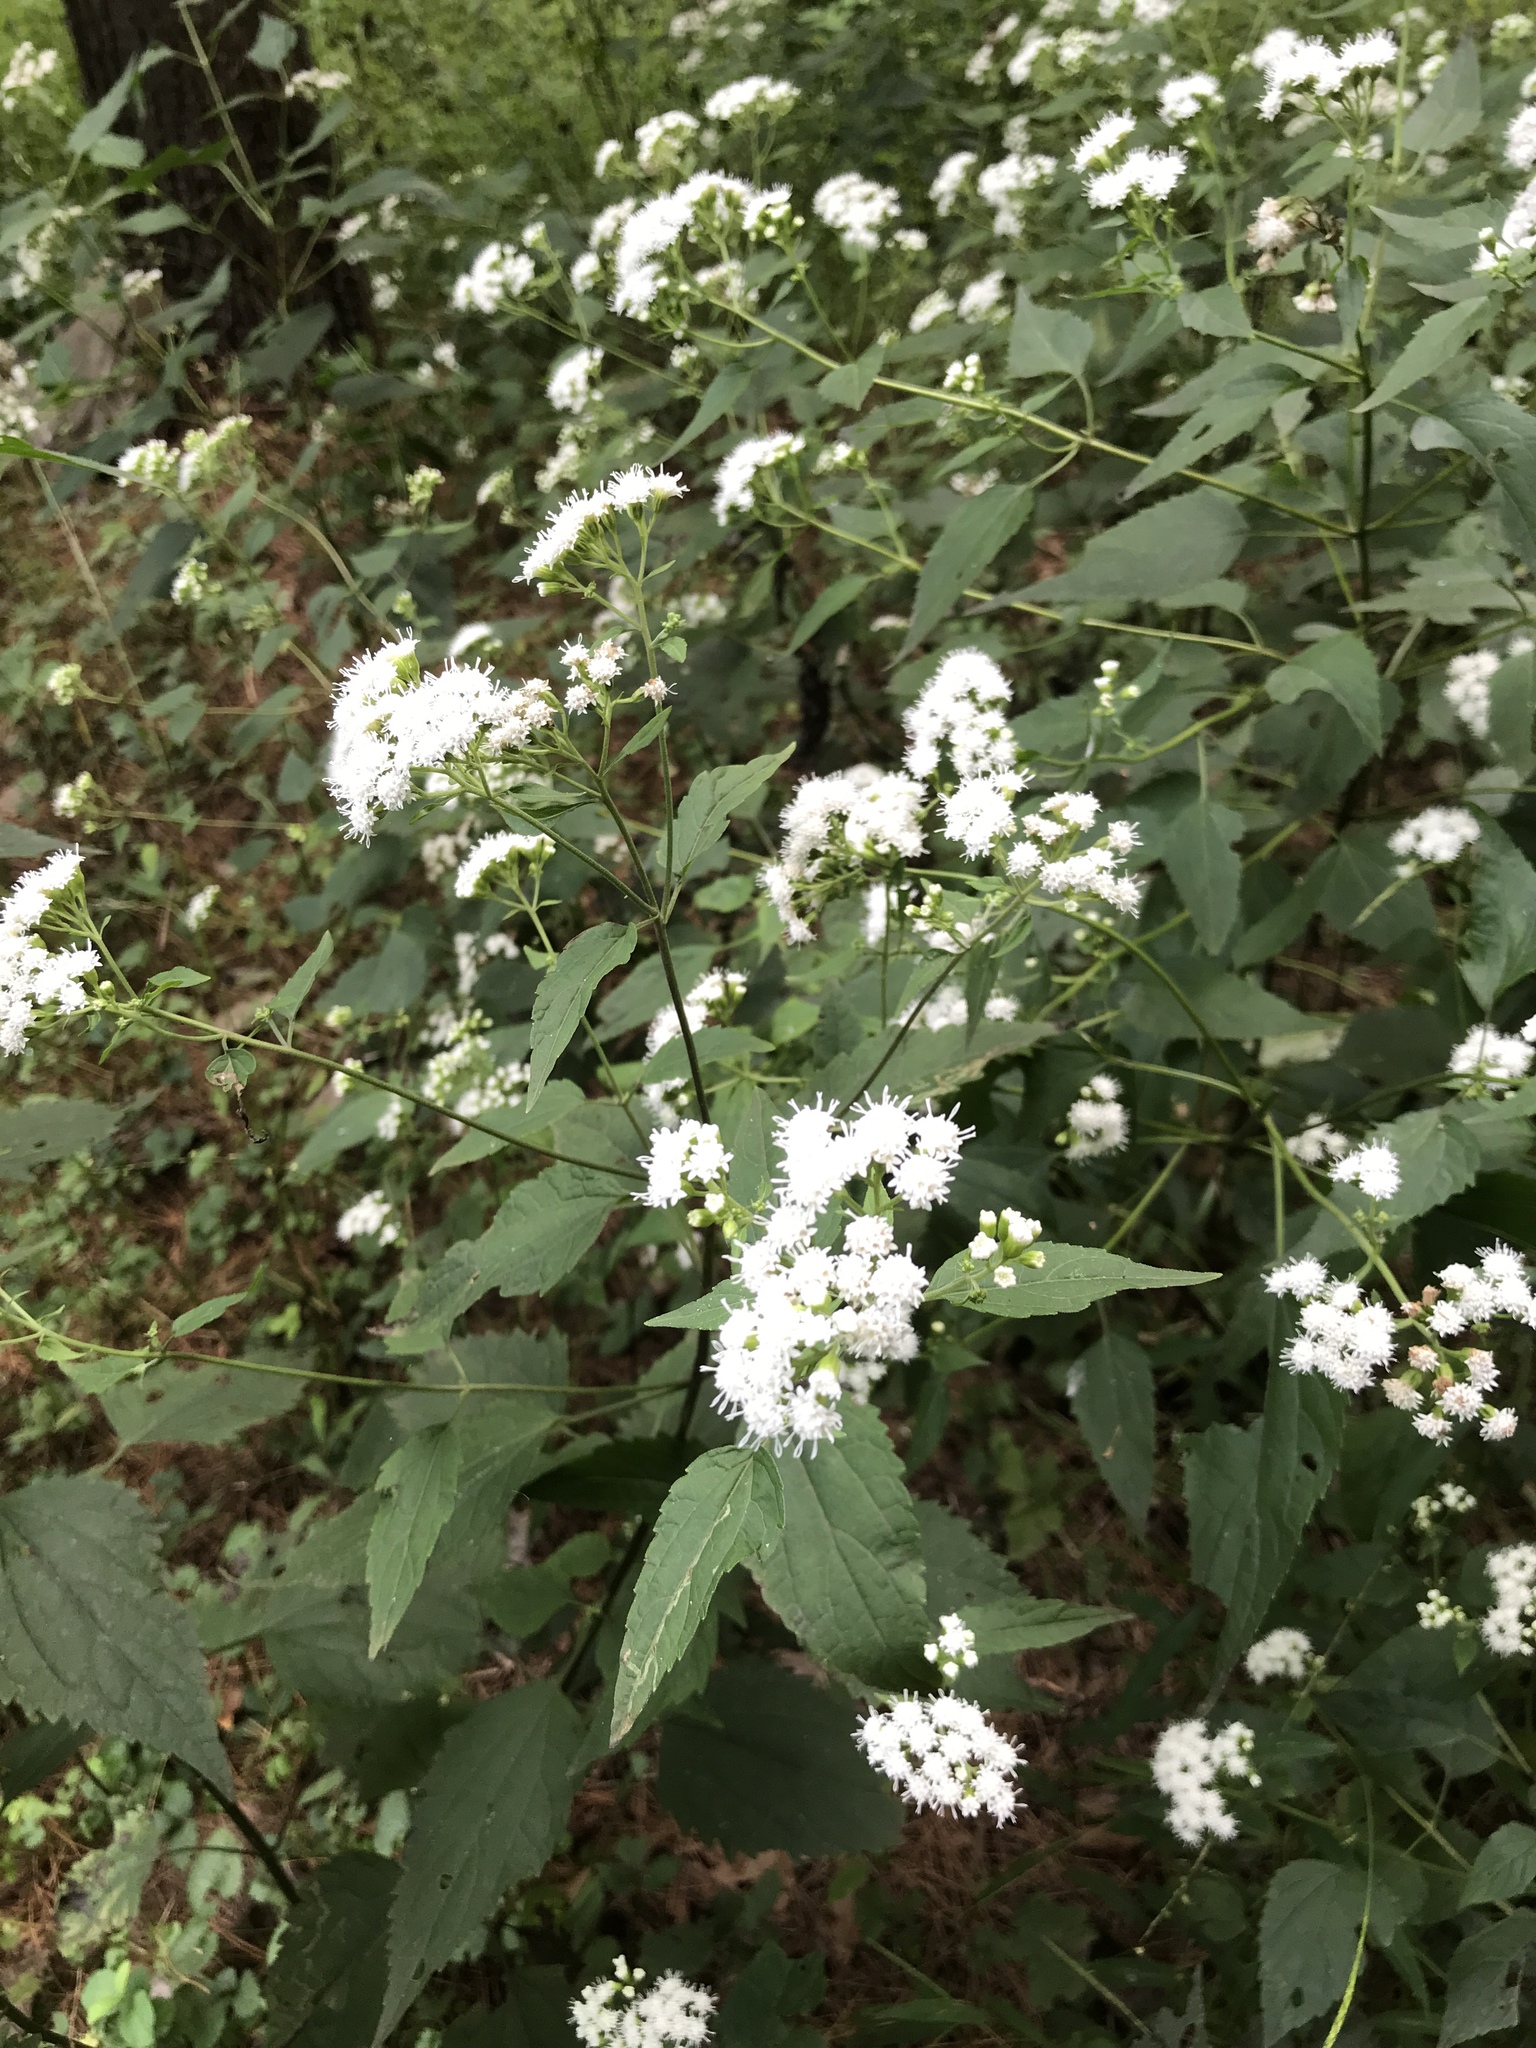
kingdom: Plantae
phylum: Tracheophyta
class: Magnoliopsida
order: Asterales
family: Asteraceae
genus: Ageratina
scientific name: Ageratina altissima
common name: White snakeroot
